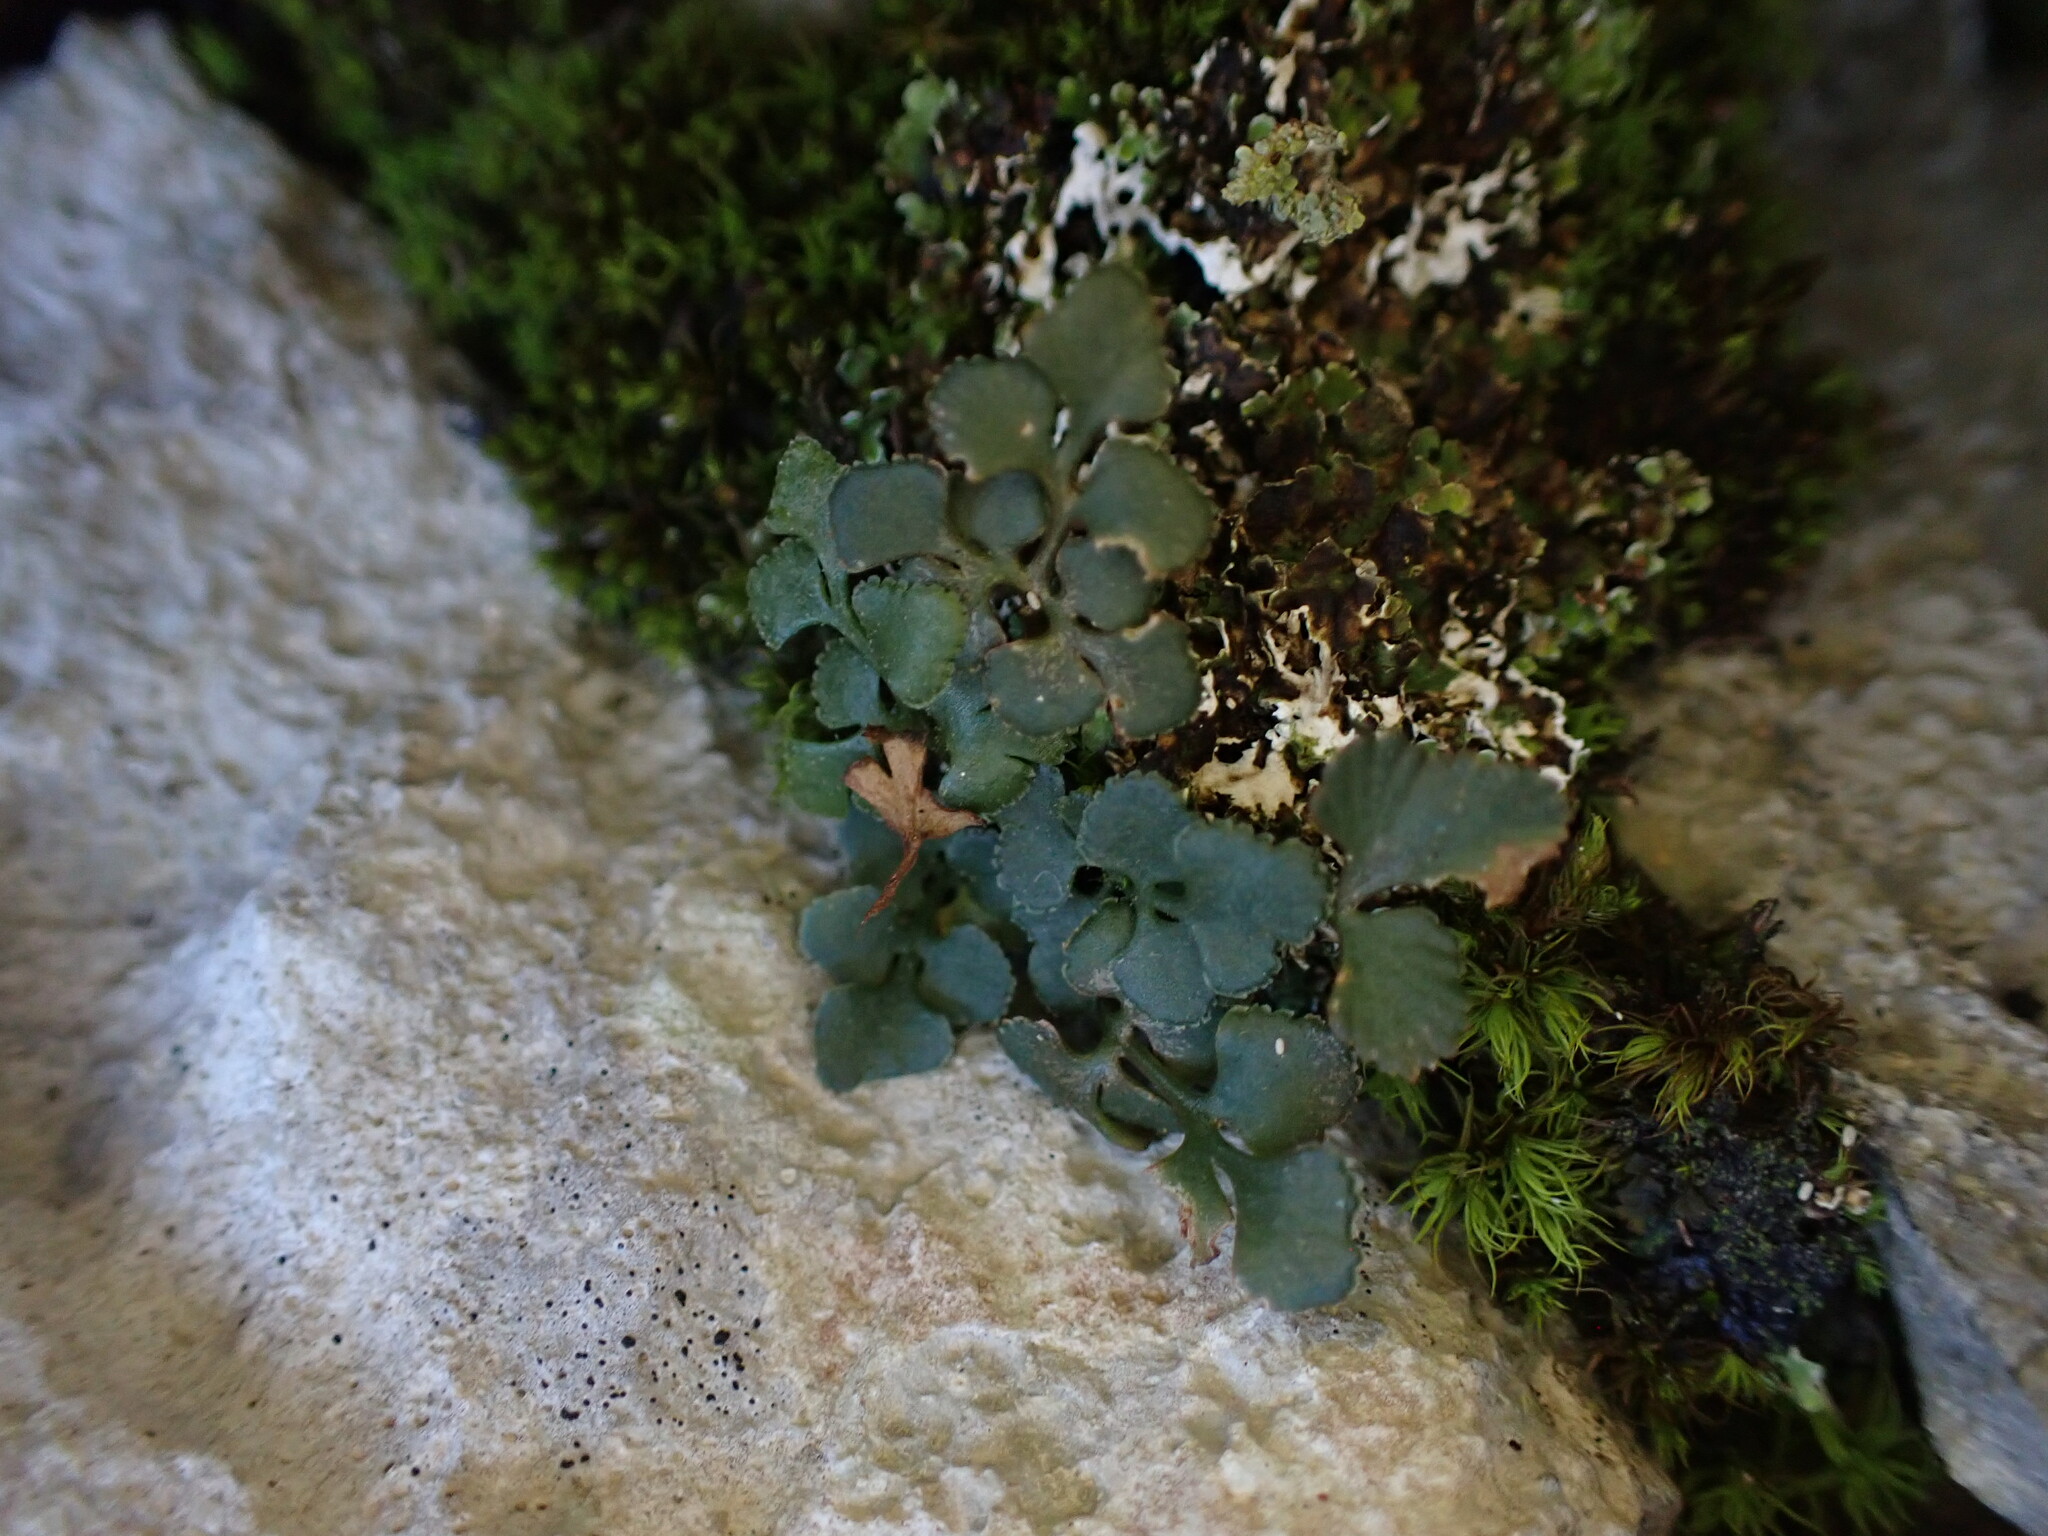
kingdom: Plantae
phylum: Tracheophyta
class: Polypodiopsida
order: Polypodiales
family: Aspleniaceae
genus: Asplenium
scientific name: Asplenium ruta-muraria
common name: Wall-rue
